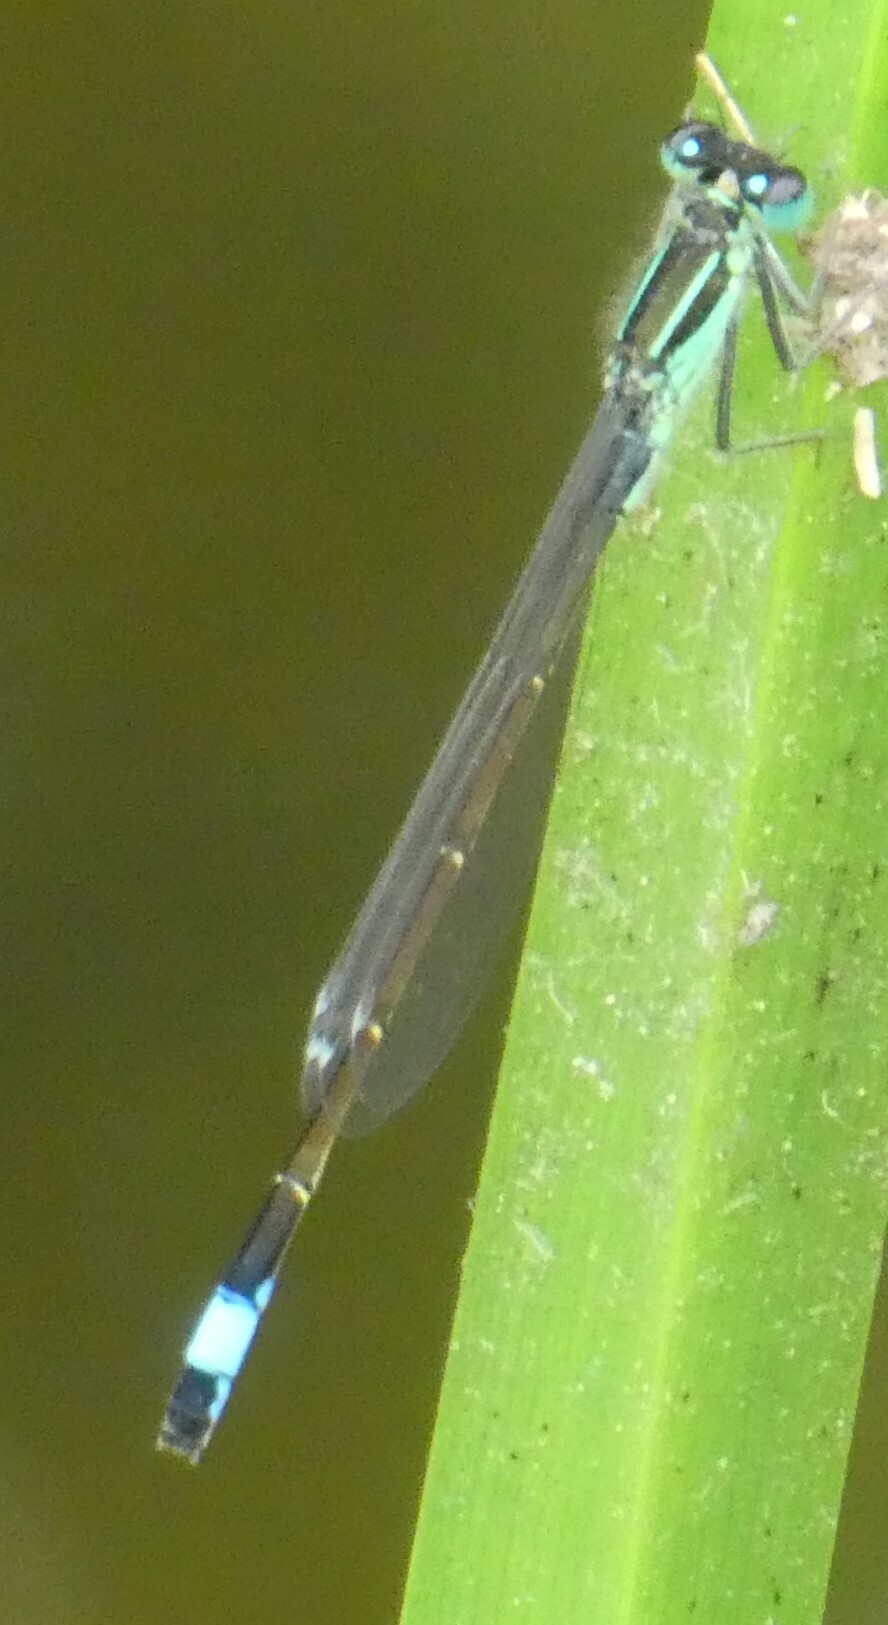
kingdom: Animalia
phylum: Arthropoda
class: Insecta
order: Odonata
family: Coenagrionidae
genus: Ischnura
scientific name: Ischnura elegans
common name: Blue-tailed damselfly
